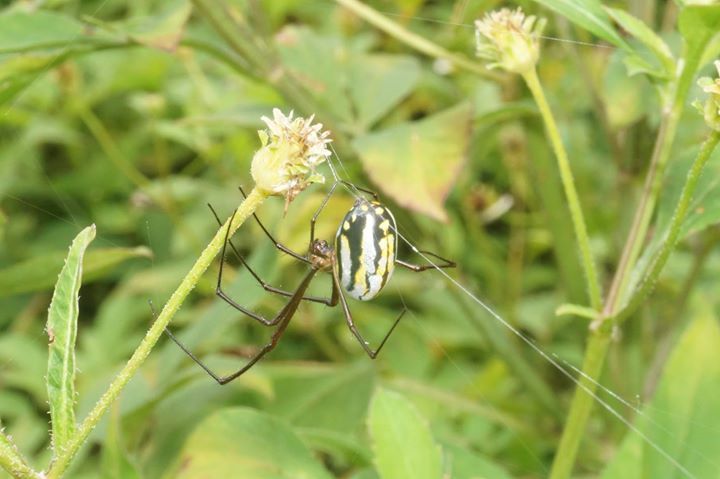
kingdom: Animalia
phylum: Arthropoda
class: Arachnida
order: Araneae
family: Tetragnathidae
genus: Leucauge
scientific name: Leucauge argyra
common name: Longjawed orb weavers
